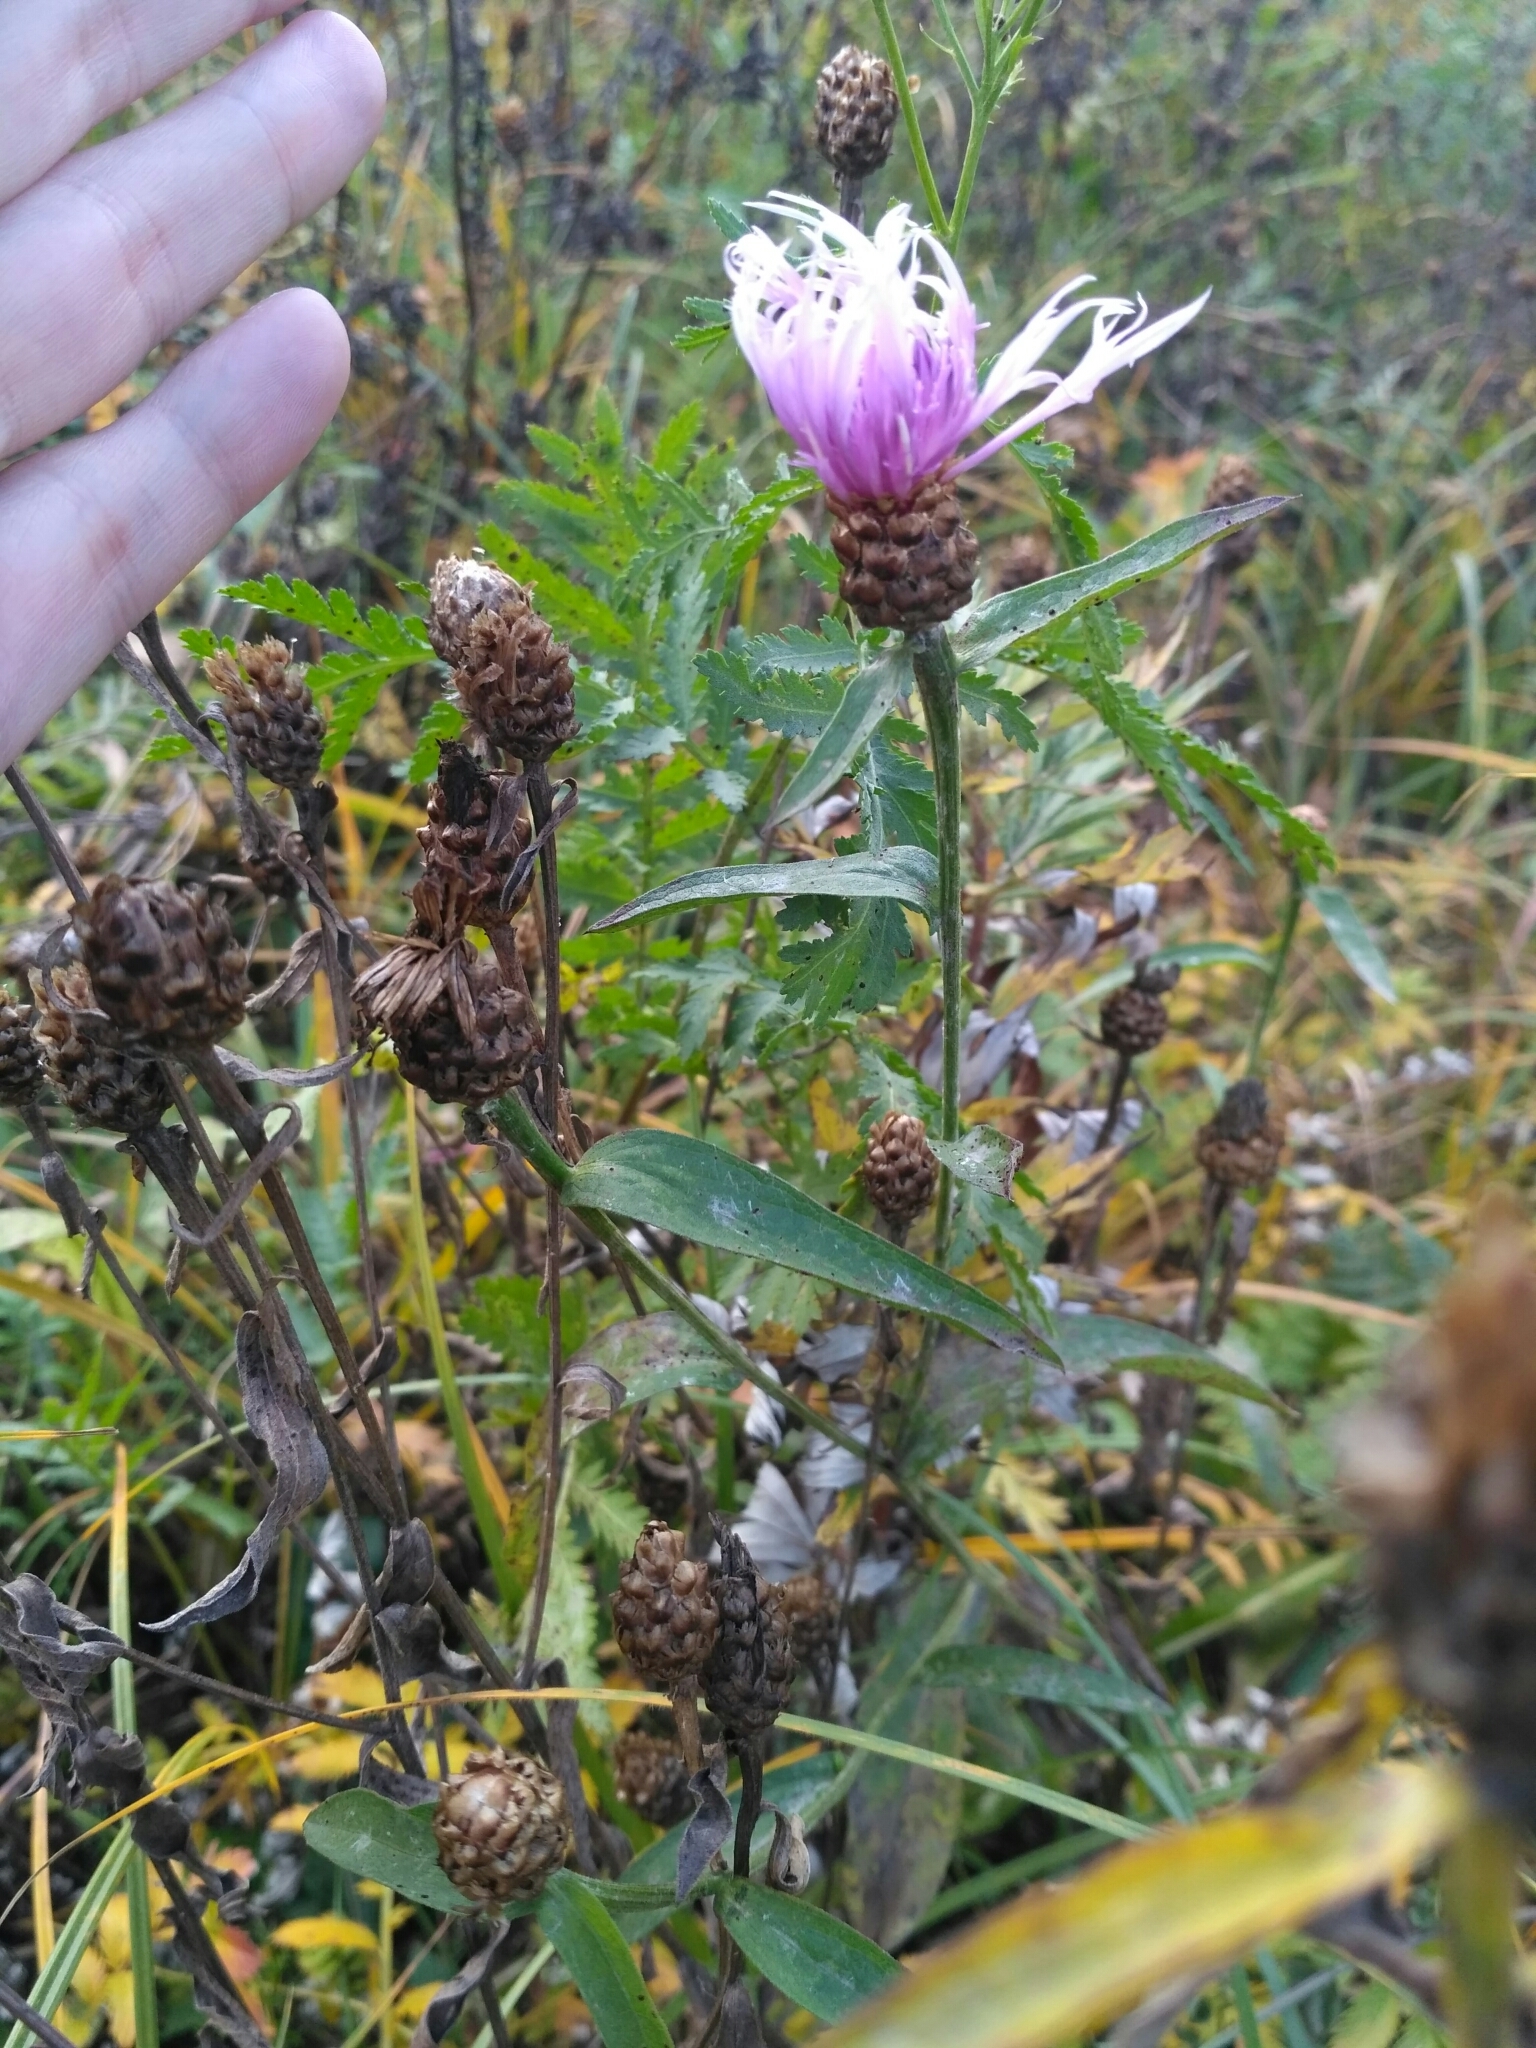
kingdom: Plantae
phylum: Tracheophyta
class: Magnoliopsida
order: Asterales
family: Asteraceae
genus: Centaurea
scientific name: Centaurea jacea
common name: Brown knapweed
